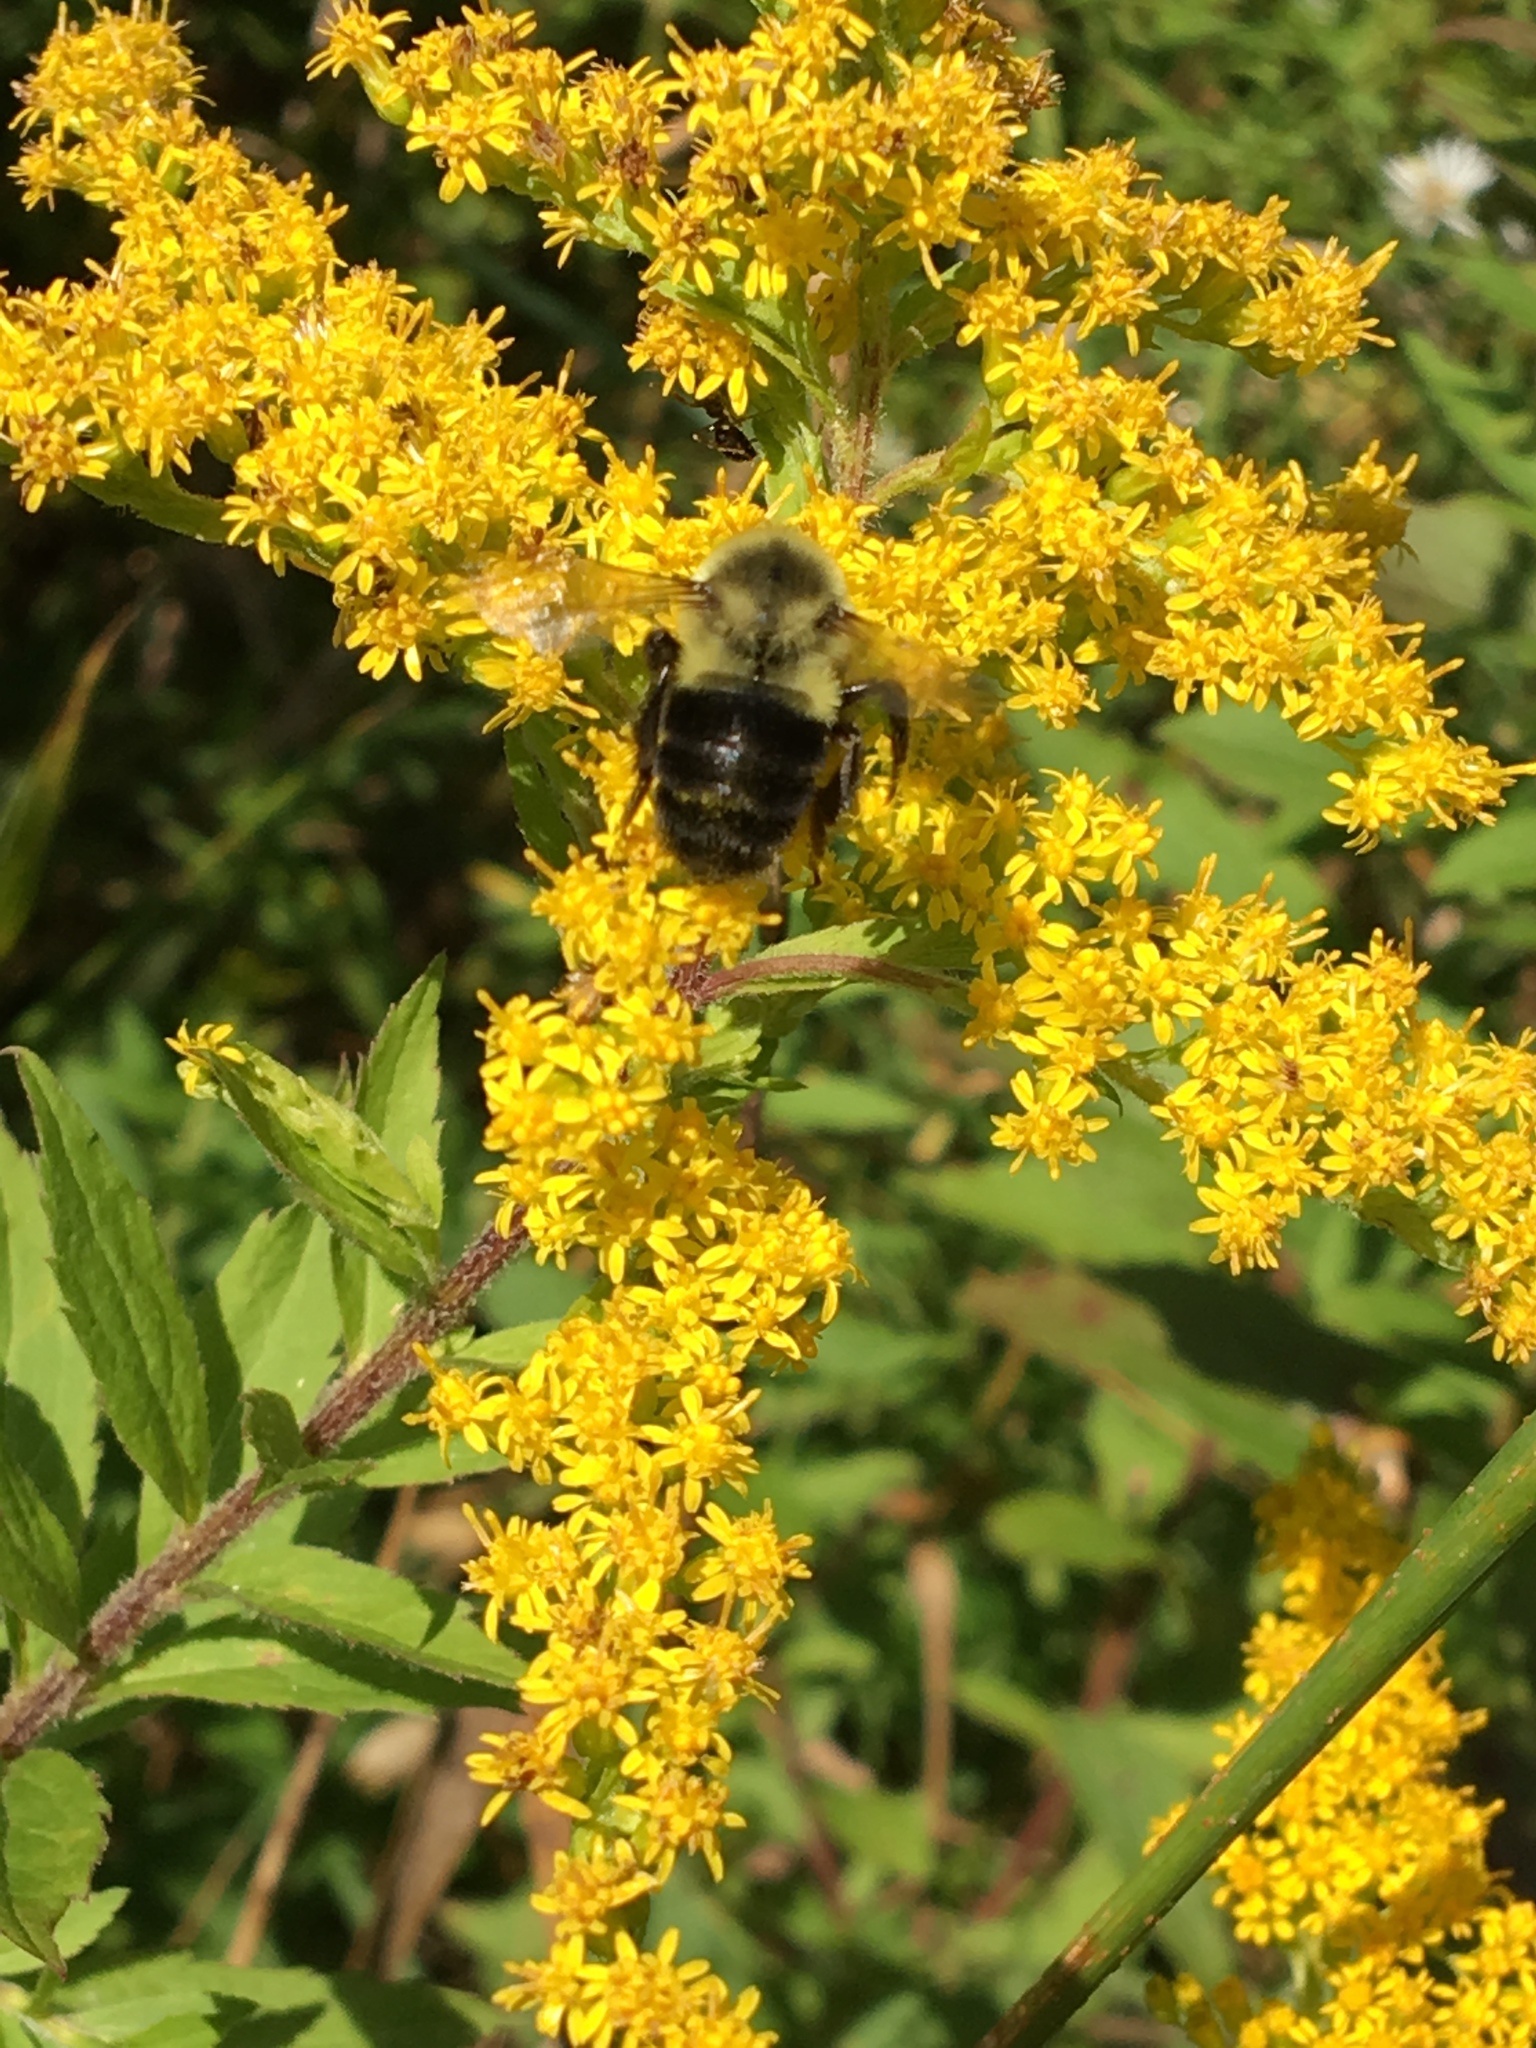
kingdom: Animalia
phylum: Arthropoda
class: Insecta
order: Hymenoptera
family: Apidae
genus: Bombus
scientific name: Bombus impatiens
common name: Common eastern bumble bee
